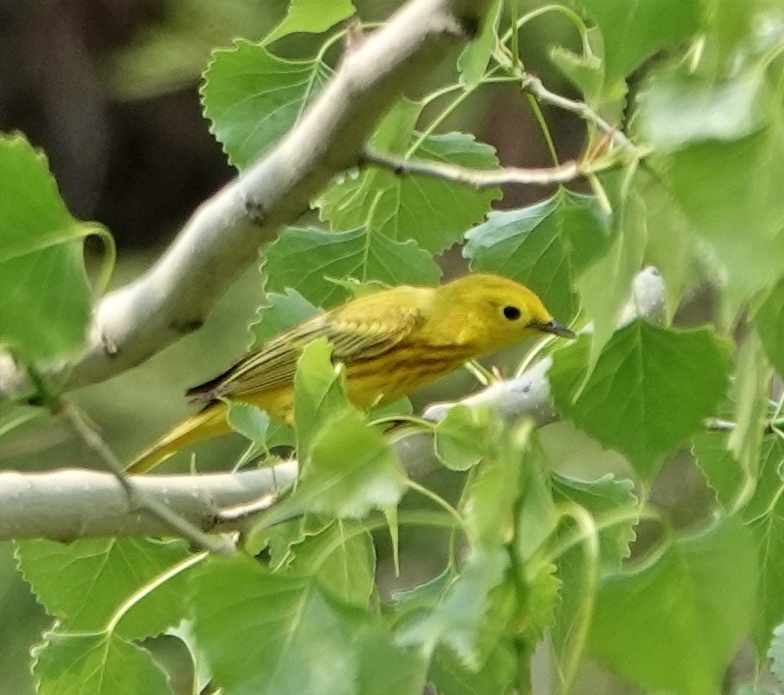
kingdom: Animalia
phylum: Chordata
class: Aves
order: Passeriformes
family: Parulidae
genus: Setophaga
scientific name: Setophaga petechia
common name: Yellow warbler
